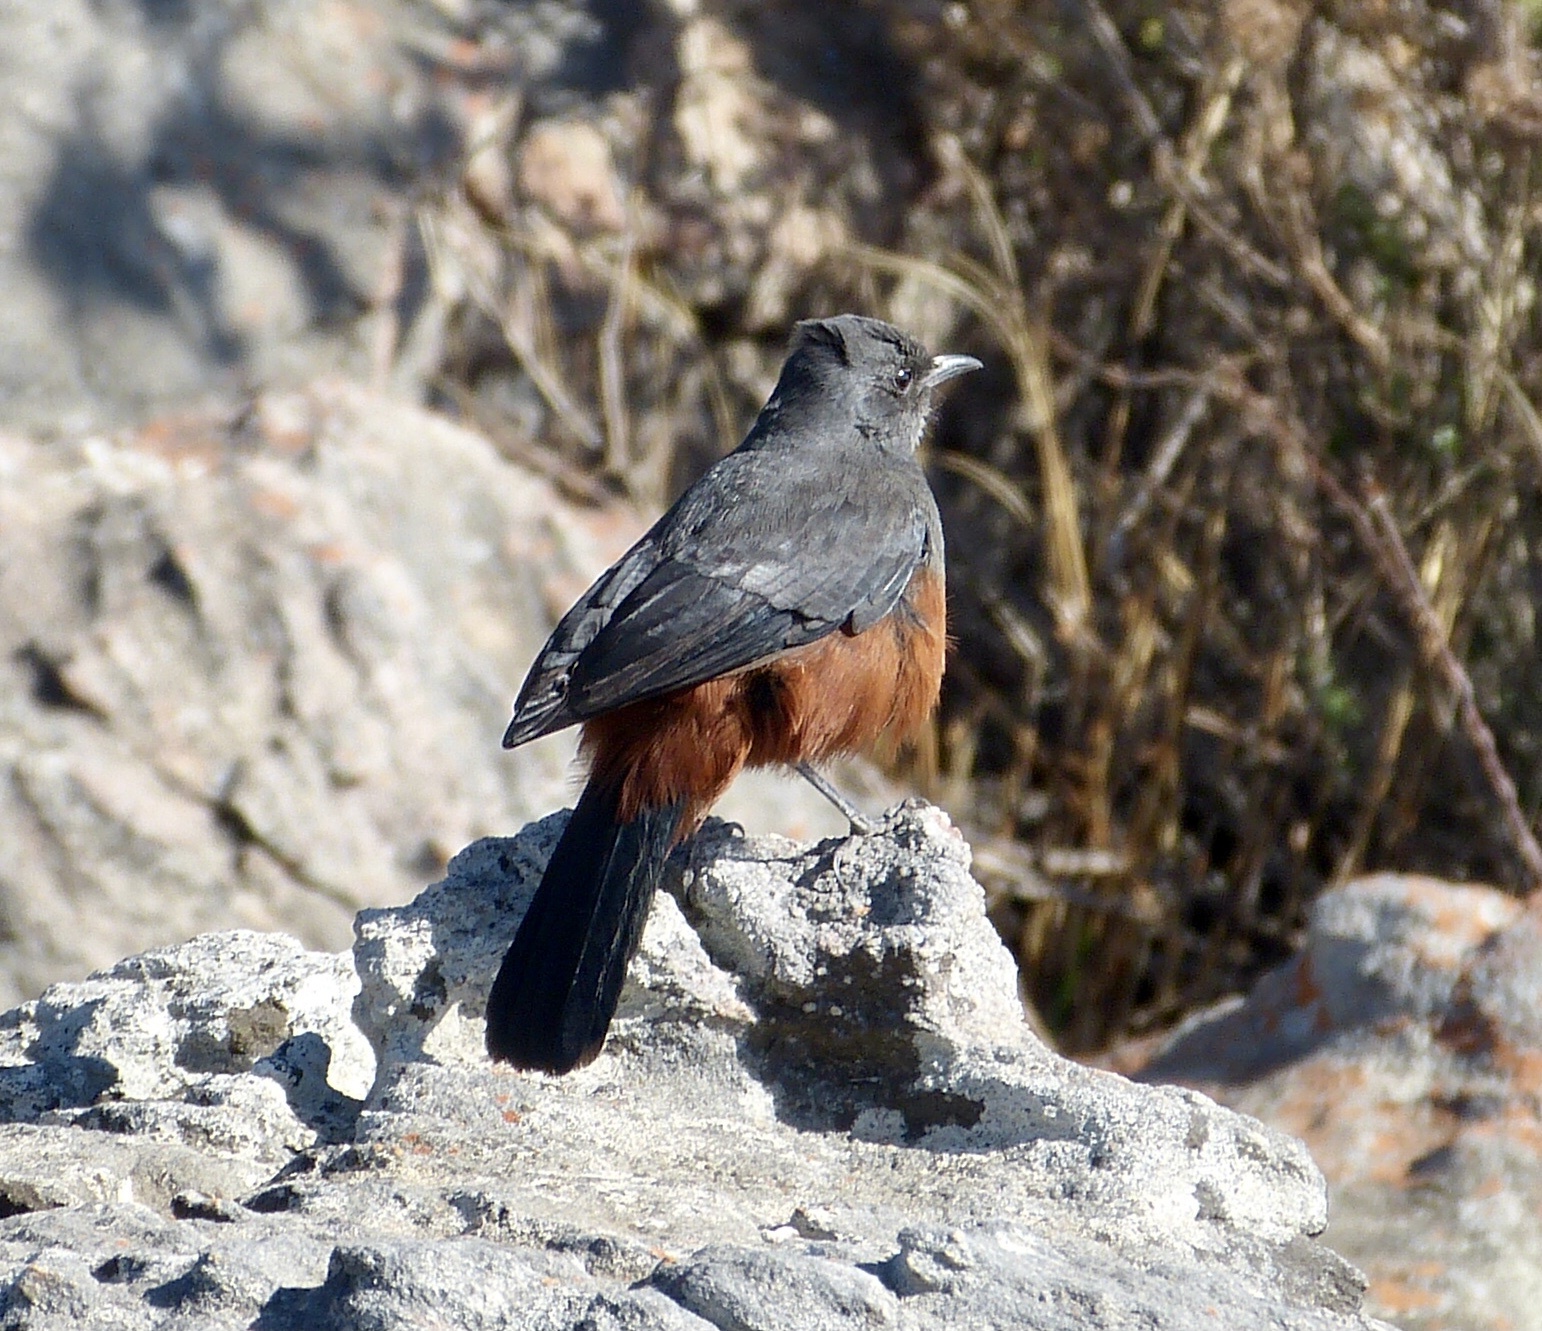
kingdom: Animalia
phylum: Chordata
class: Aves
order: Passeriformes
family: Muscicapidae
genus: Thamnolaea
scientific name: Thamnolaea cinnamomeiventris
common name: Mocking cliff chat
